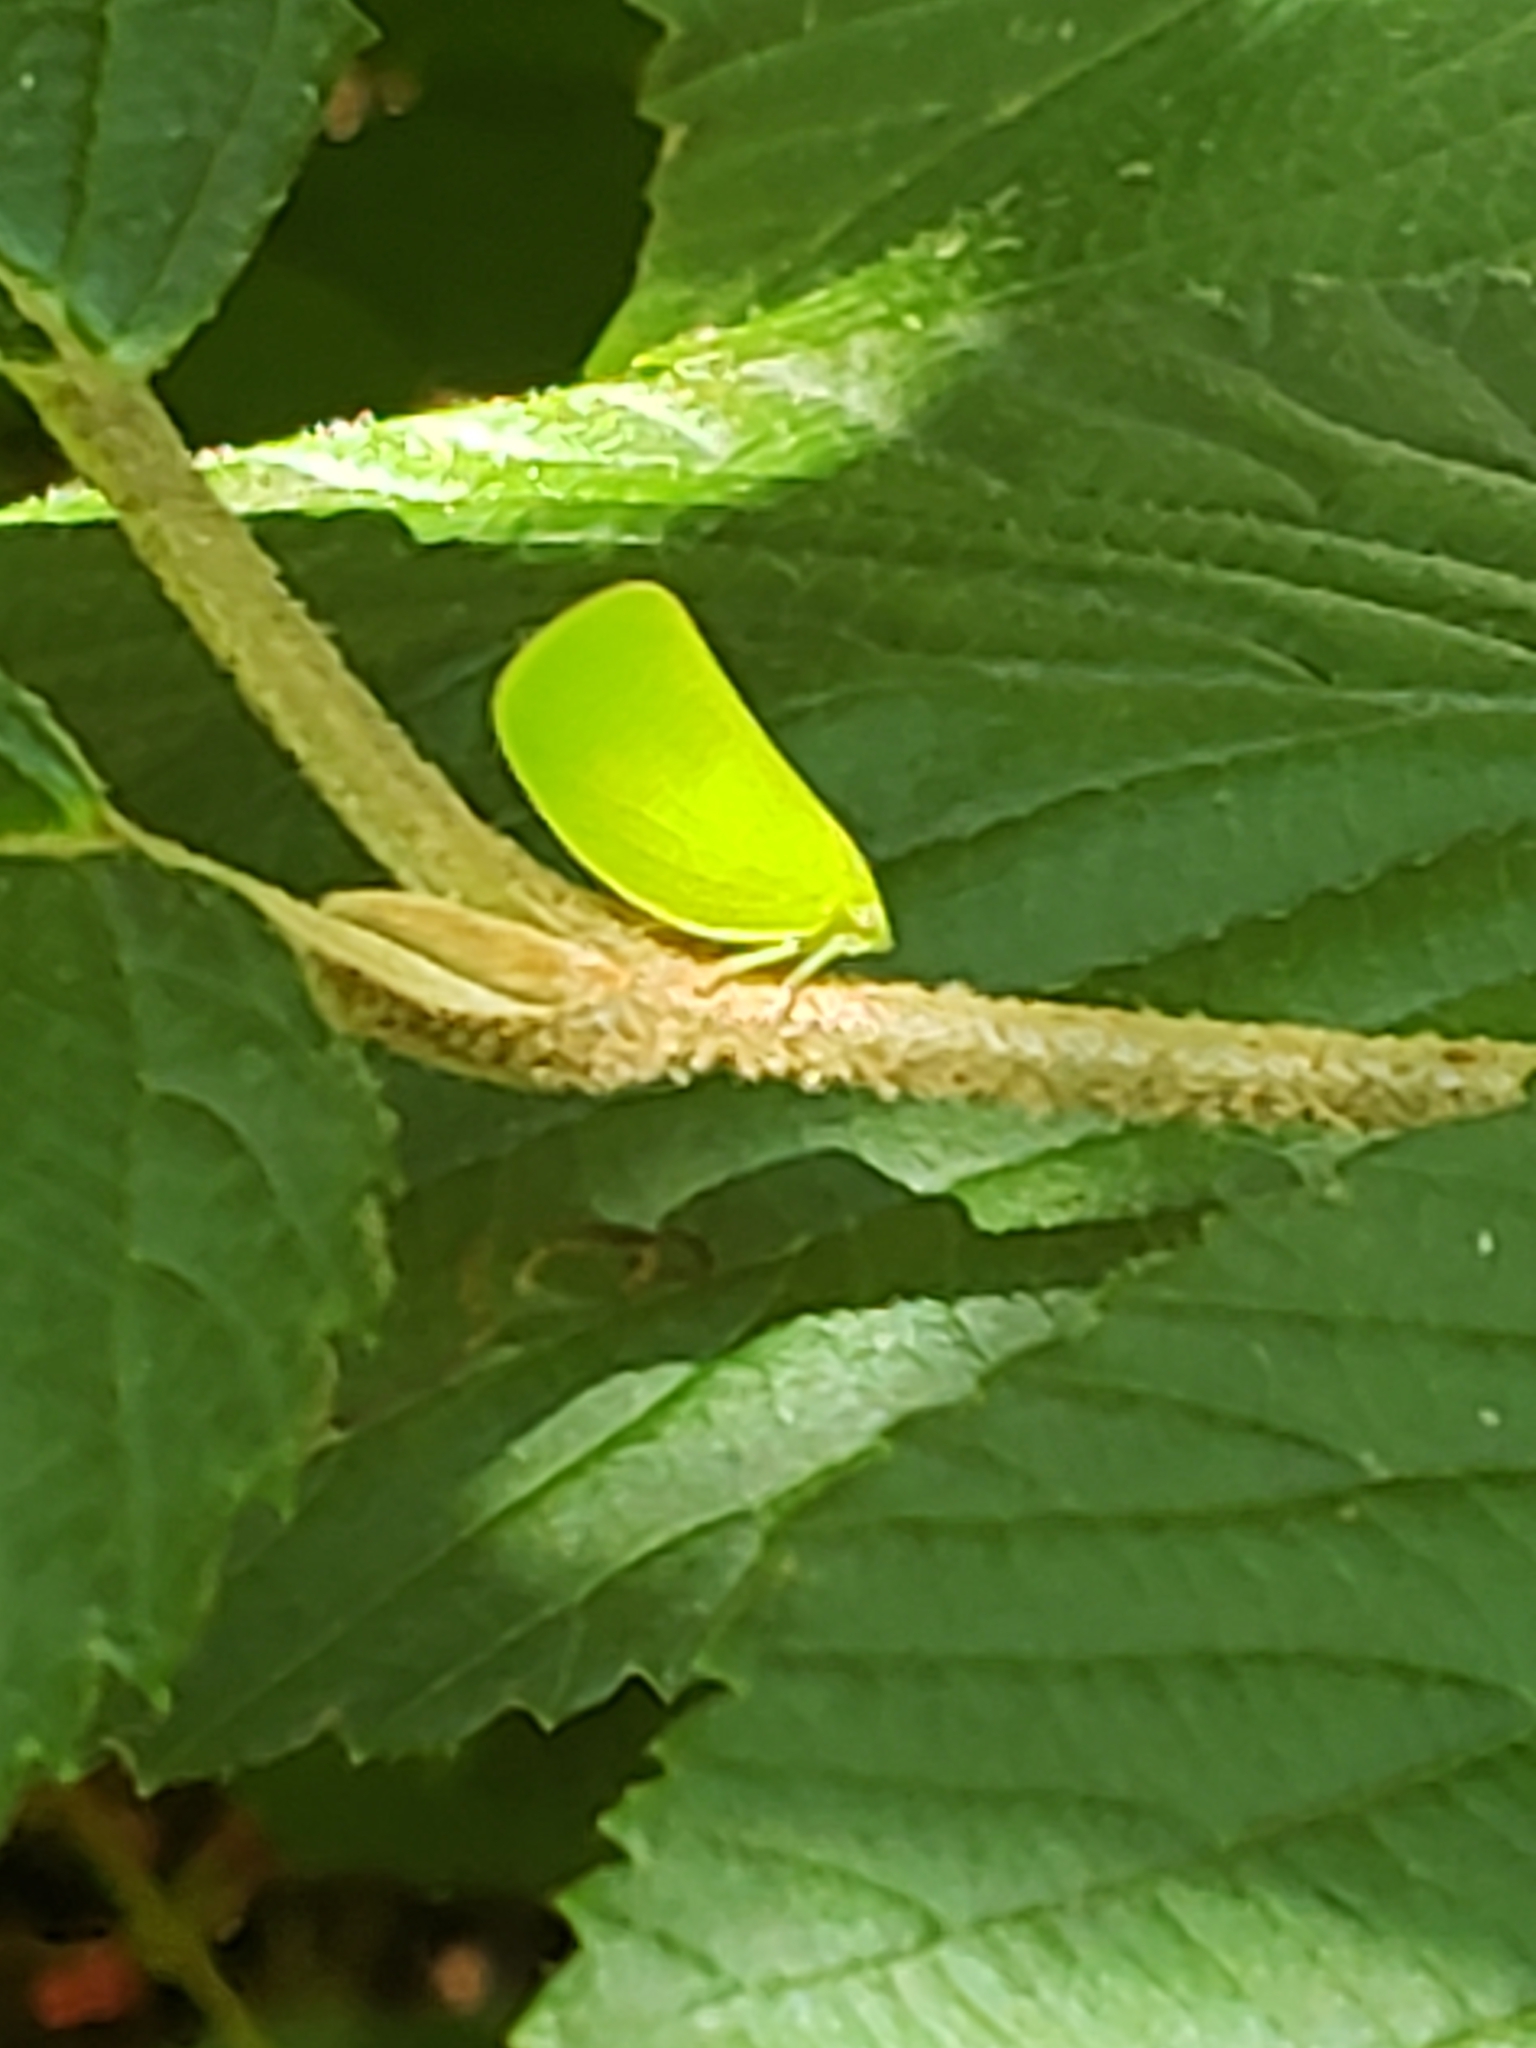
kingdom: Animalia
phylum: Arthropoda
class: Insecta
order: Hemiptera
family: Acanaloniidae
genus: Acanalonia
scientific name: Acanalonia conica
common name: Green cone-headed planthopper
